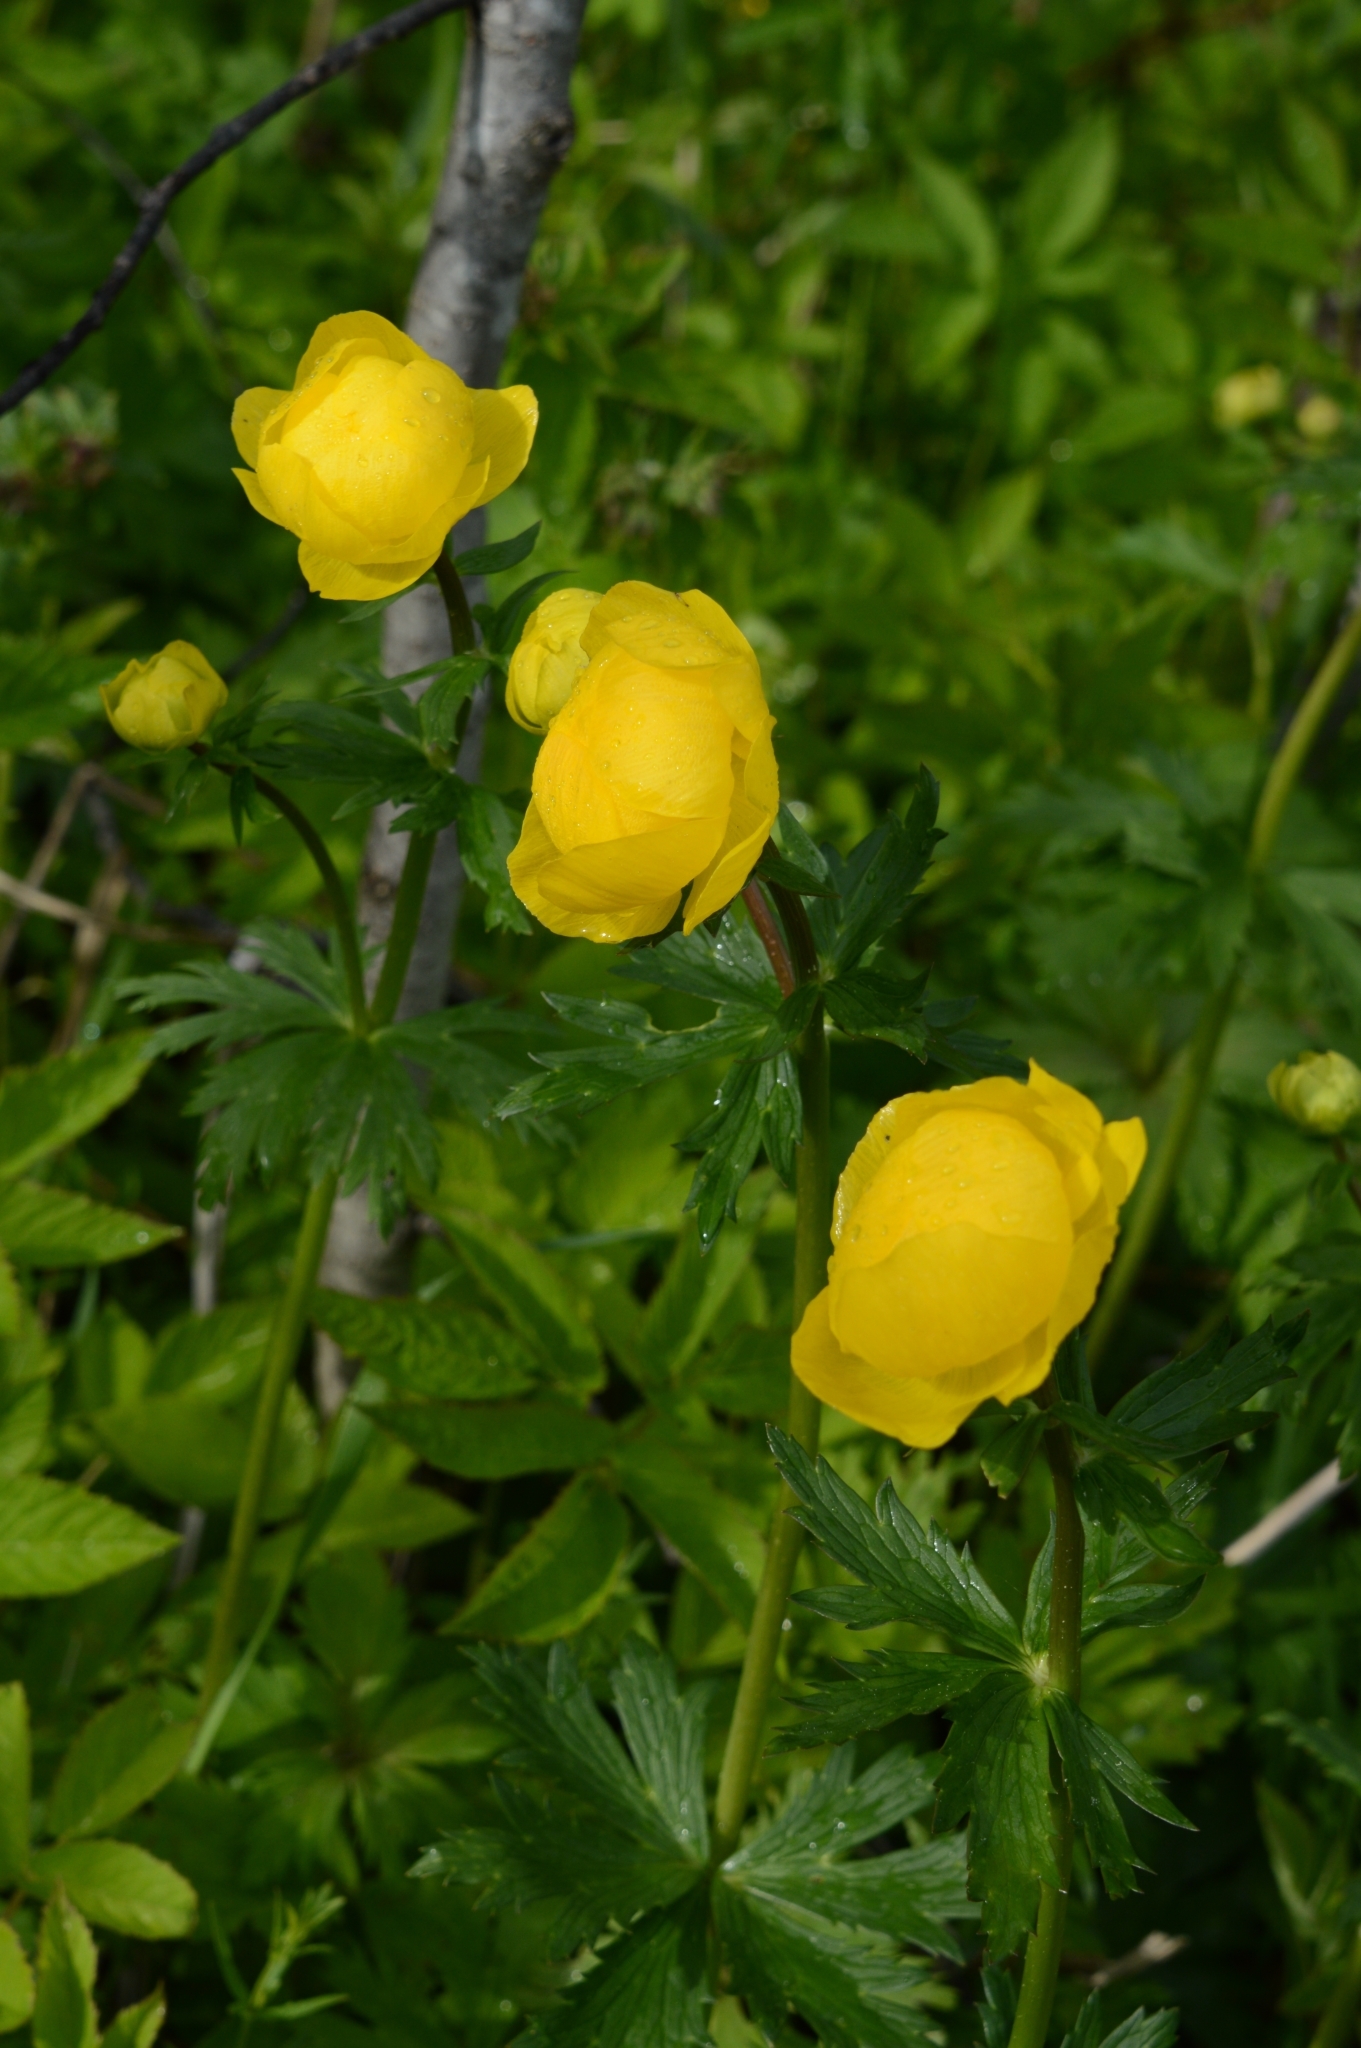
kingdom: Plantae
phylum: Tracheophyta
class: Magnoliopsida
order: Ranunculales
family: Ranunculaceae
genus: Trollius
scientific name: Trollius europaeus
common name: European globeflower
